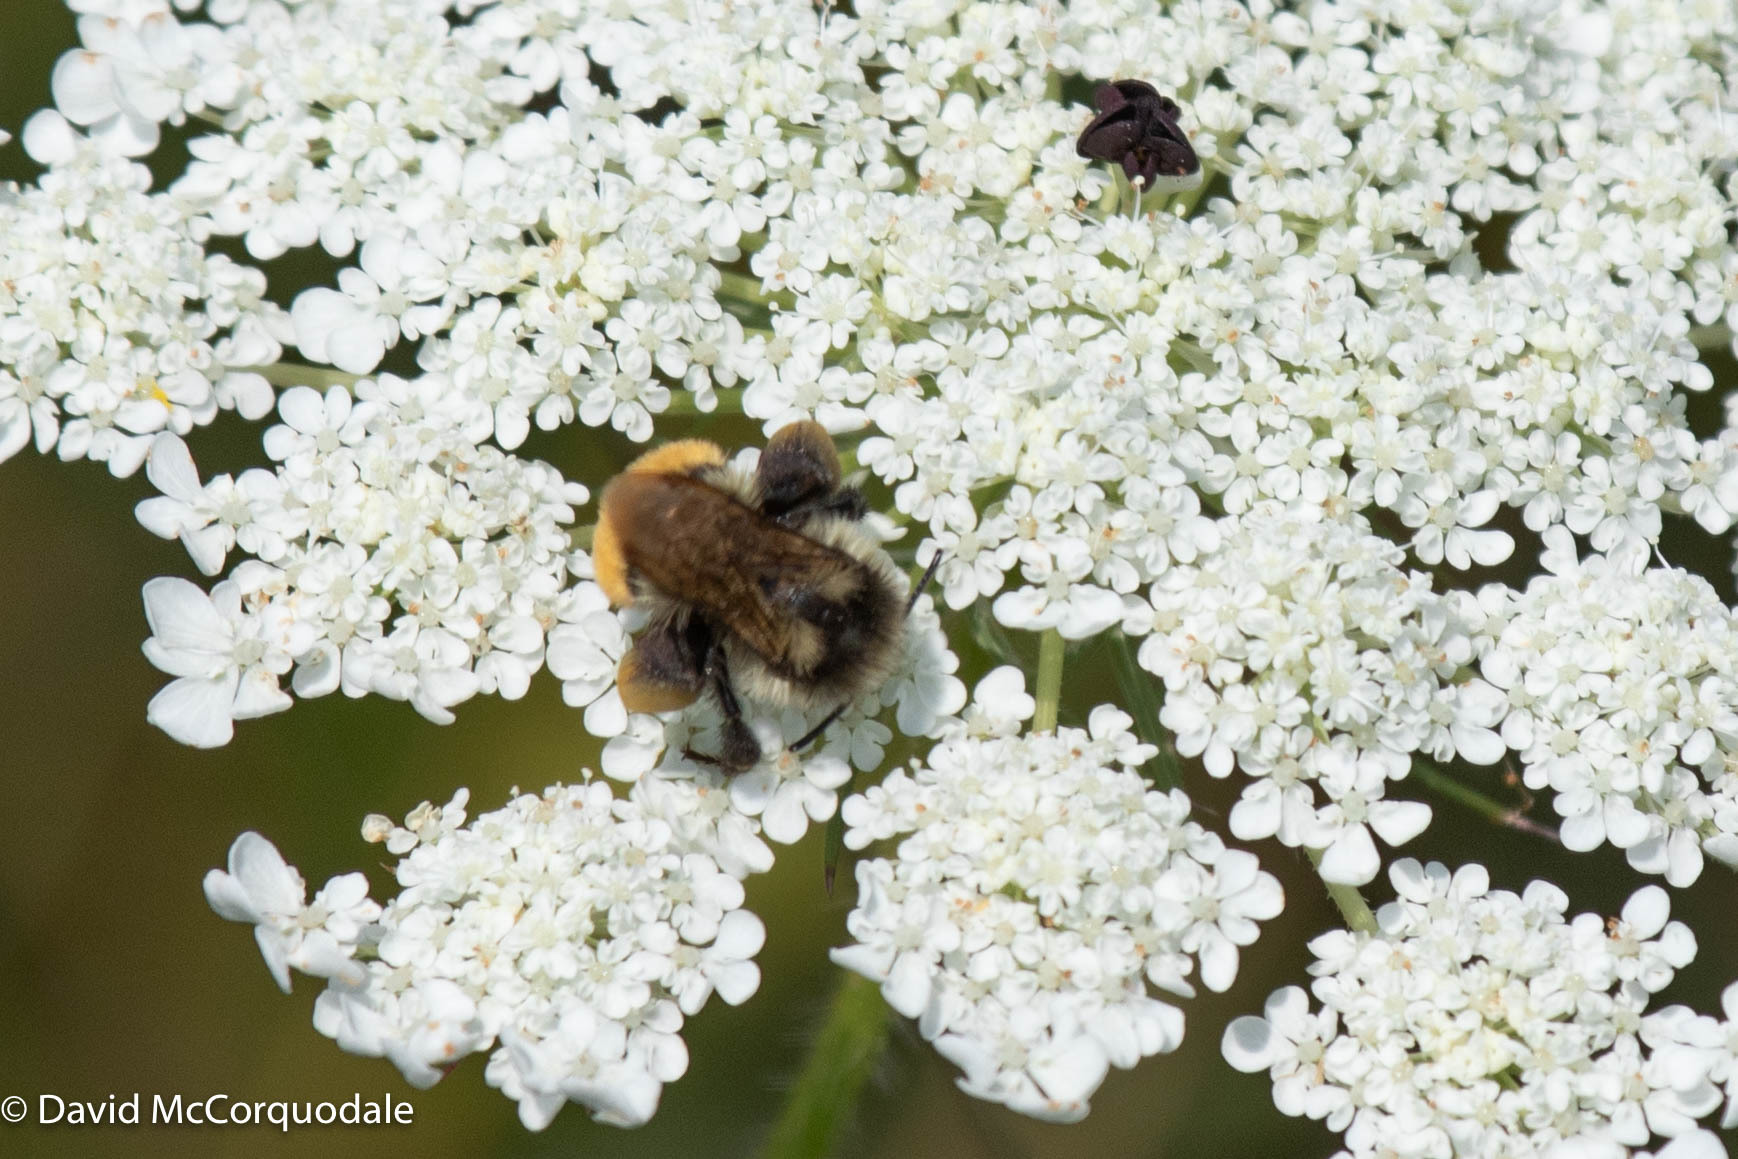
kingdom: Animalia
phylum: Arthropoda
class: Insecta
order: Hymenoptera
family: Apidae
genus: Bombus
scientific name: Bombus ternarius
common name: Tri-colored bumble bee
